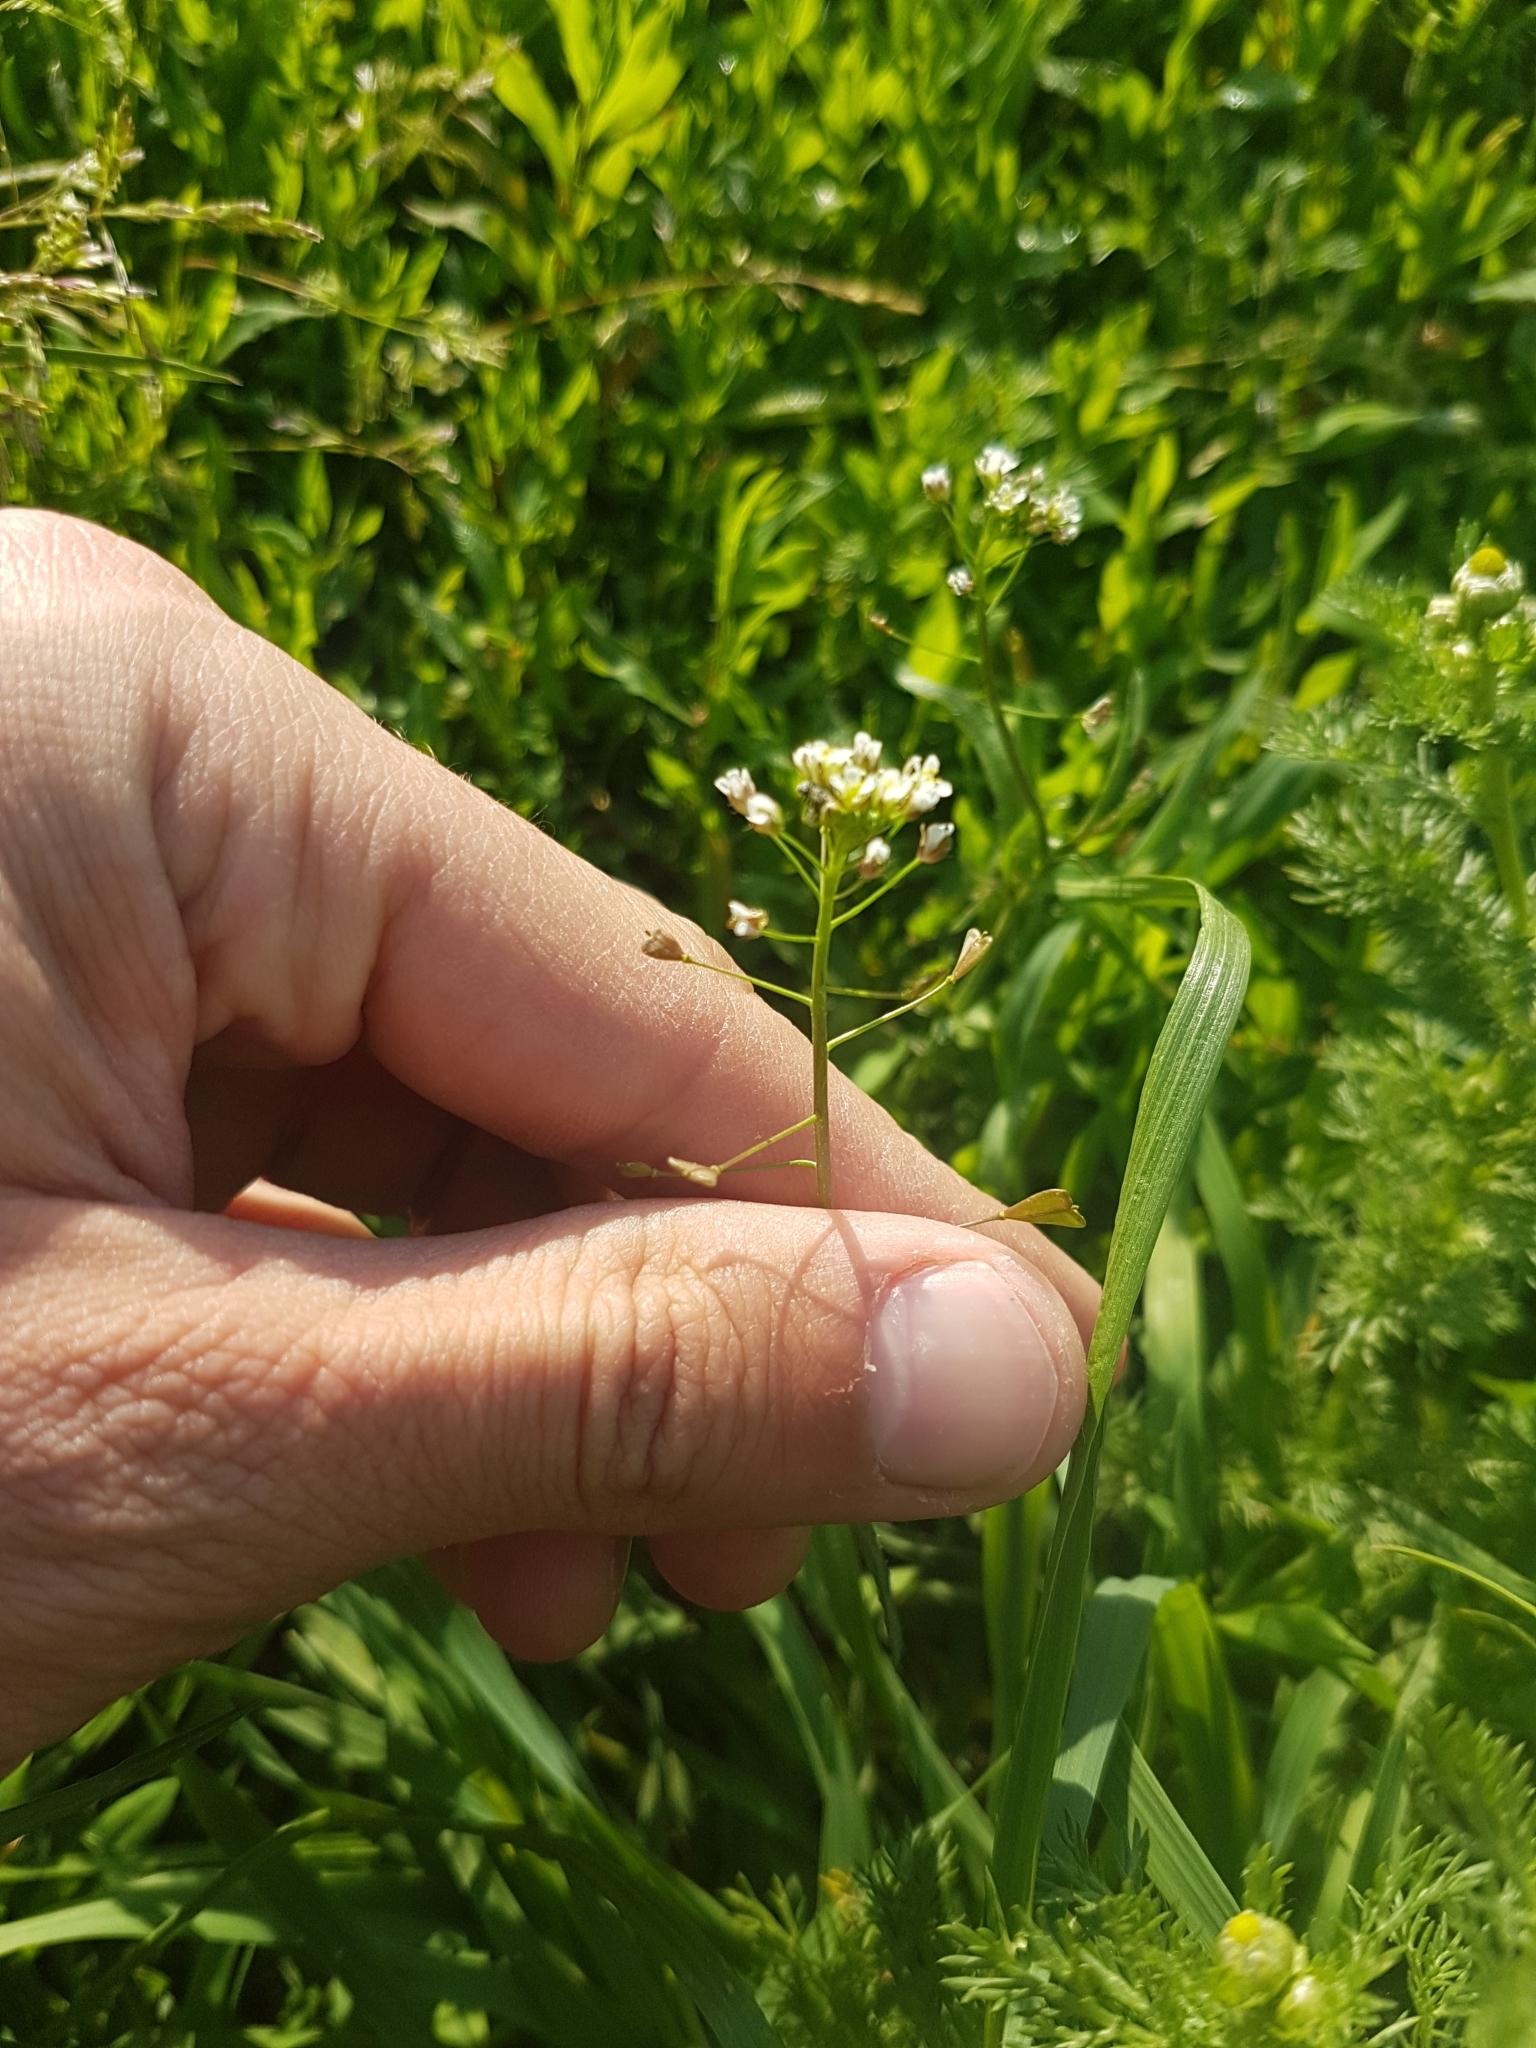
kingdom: Plantae
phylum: Tracheophyta
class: Magnoliopsida
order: Brassicales
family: Brassicaceae
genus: Capsella
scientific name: Capsella bursa-pastoris
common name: Shepherd's purse
